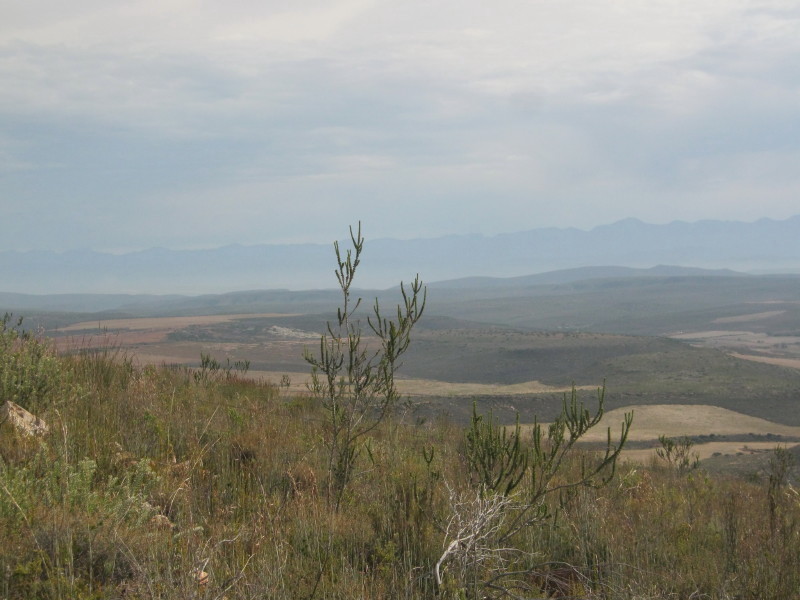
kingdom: Plantae
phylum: Tracheophyta
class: Magnoliopsida
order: Fabales
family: Fabaceae
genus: Aspalathus
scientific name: Aspalathus sceptrumaureum
